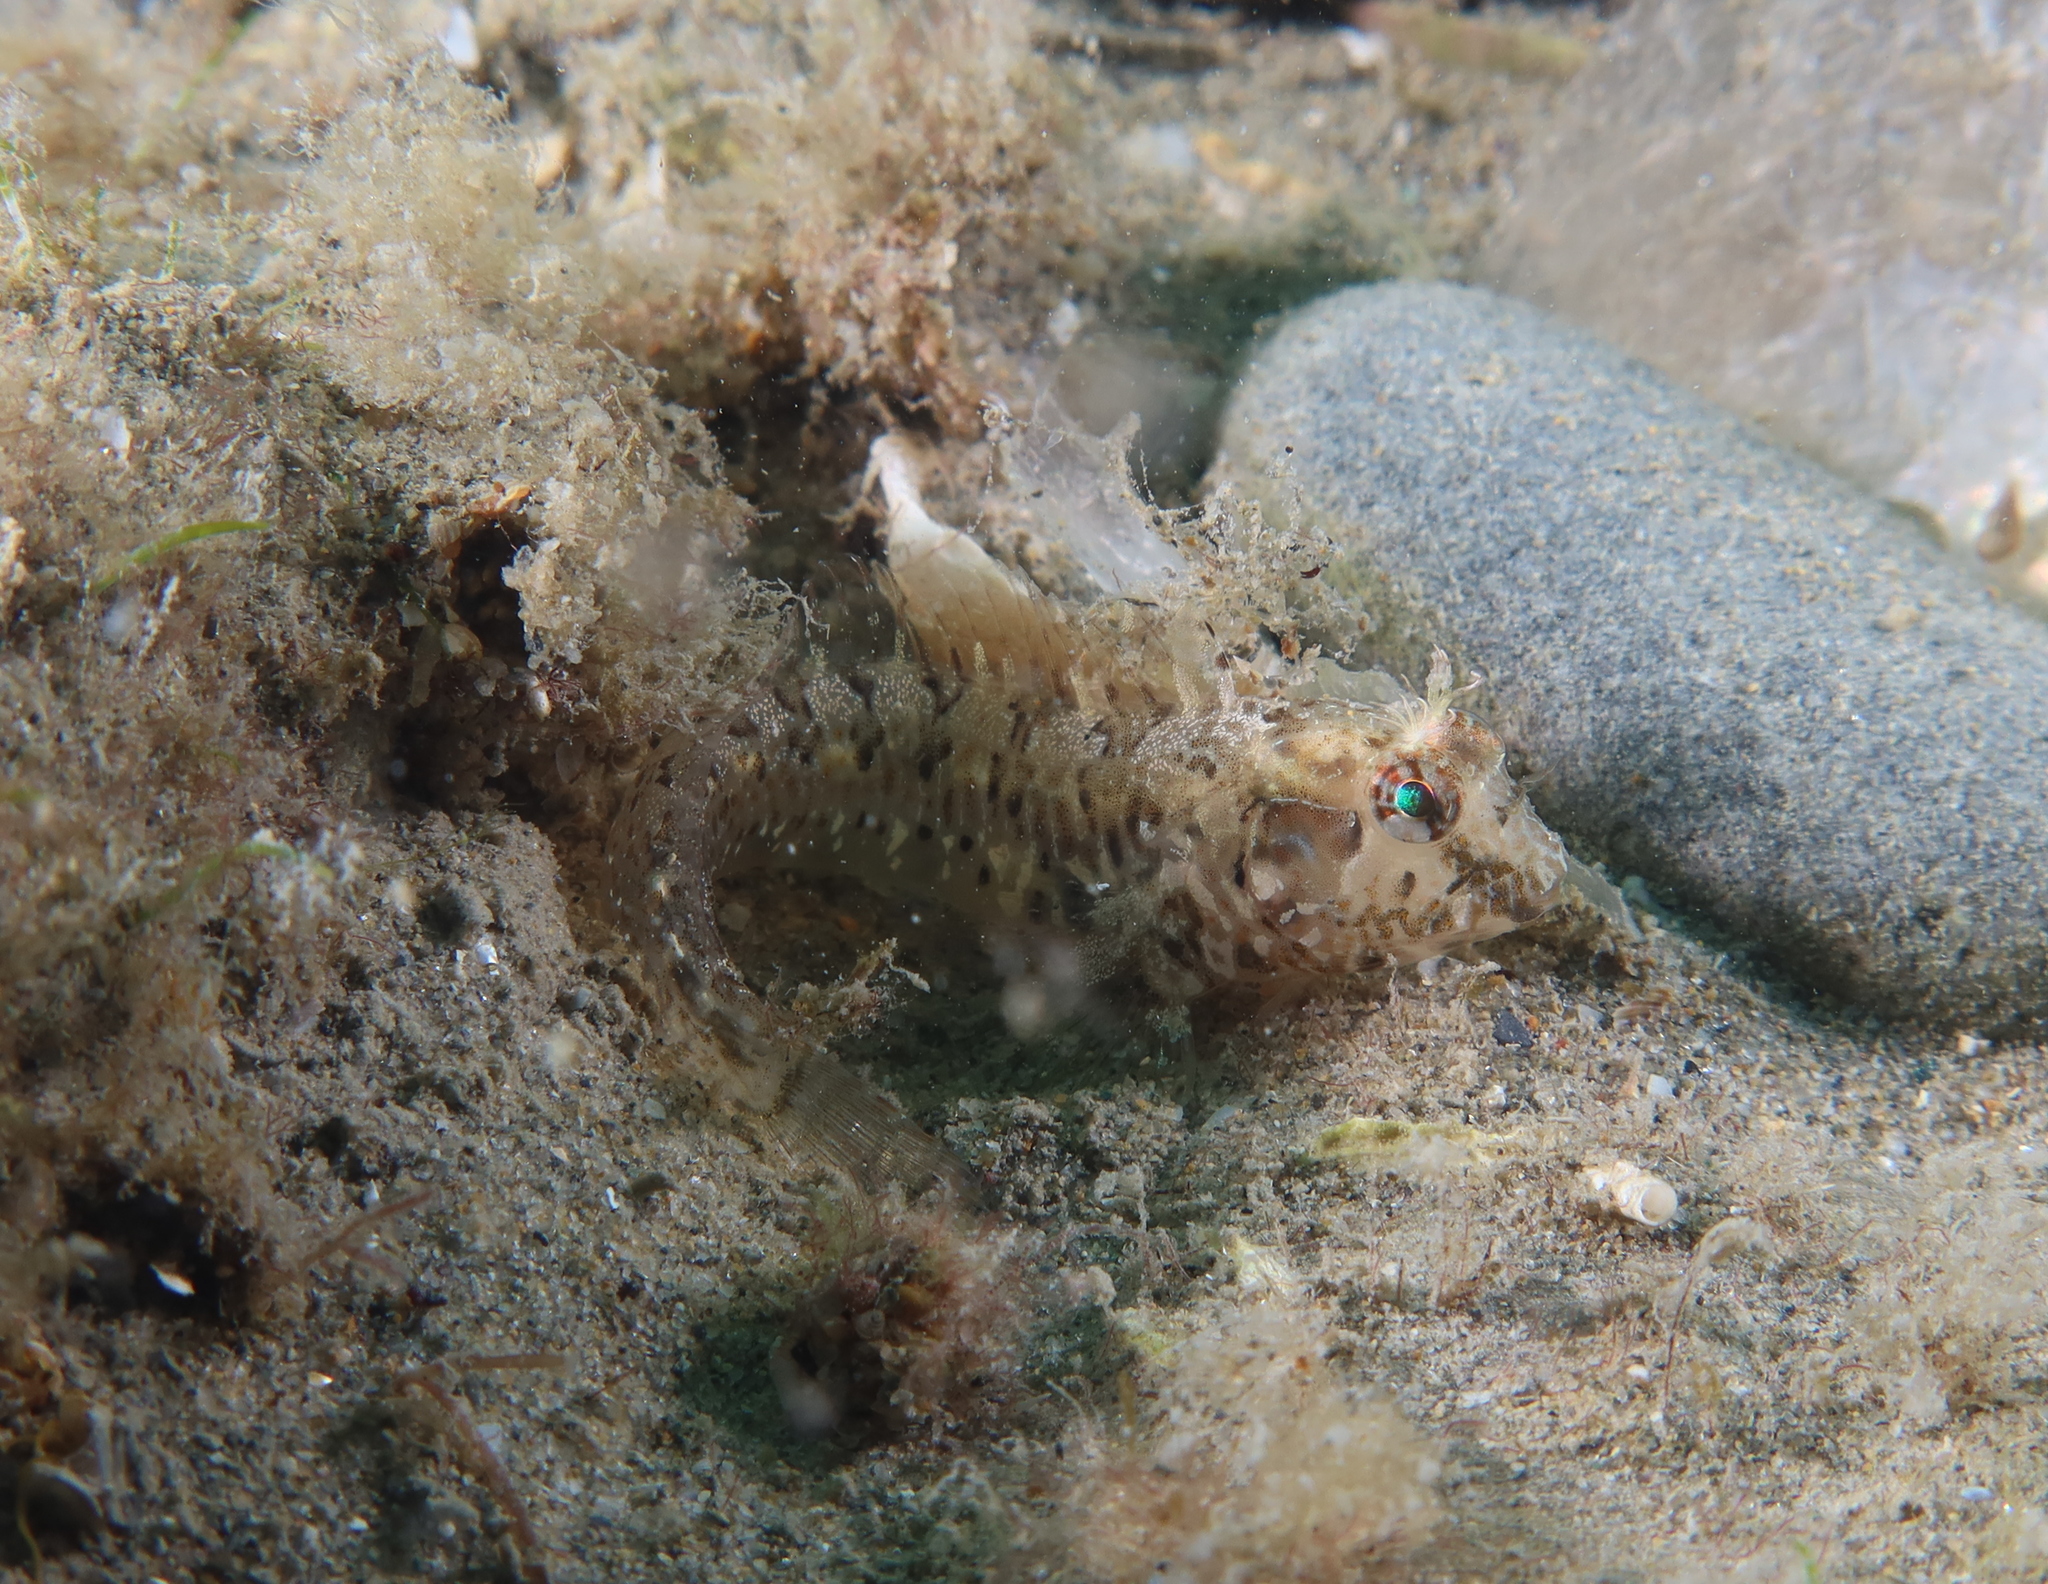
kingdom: Animalia
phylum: Chordata
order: Perciformes
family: Blenniidae
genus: Parablennius
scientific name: Parablennius incognitus
